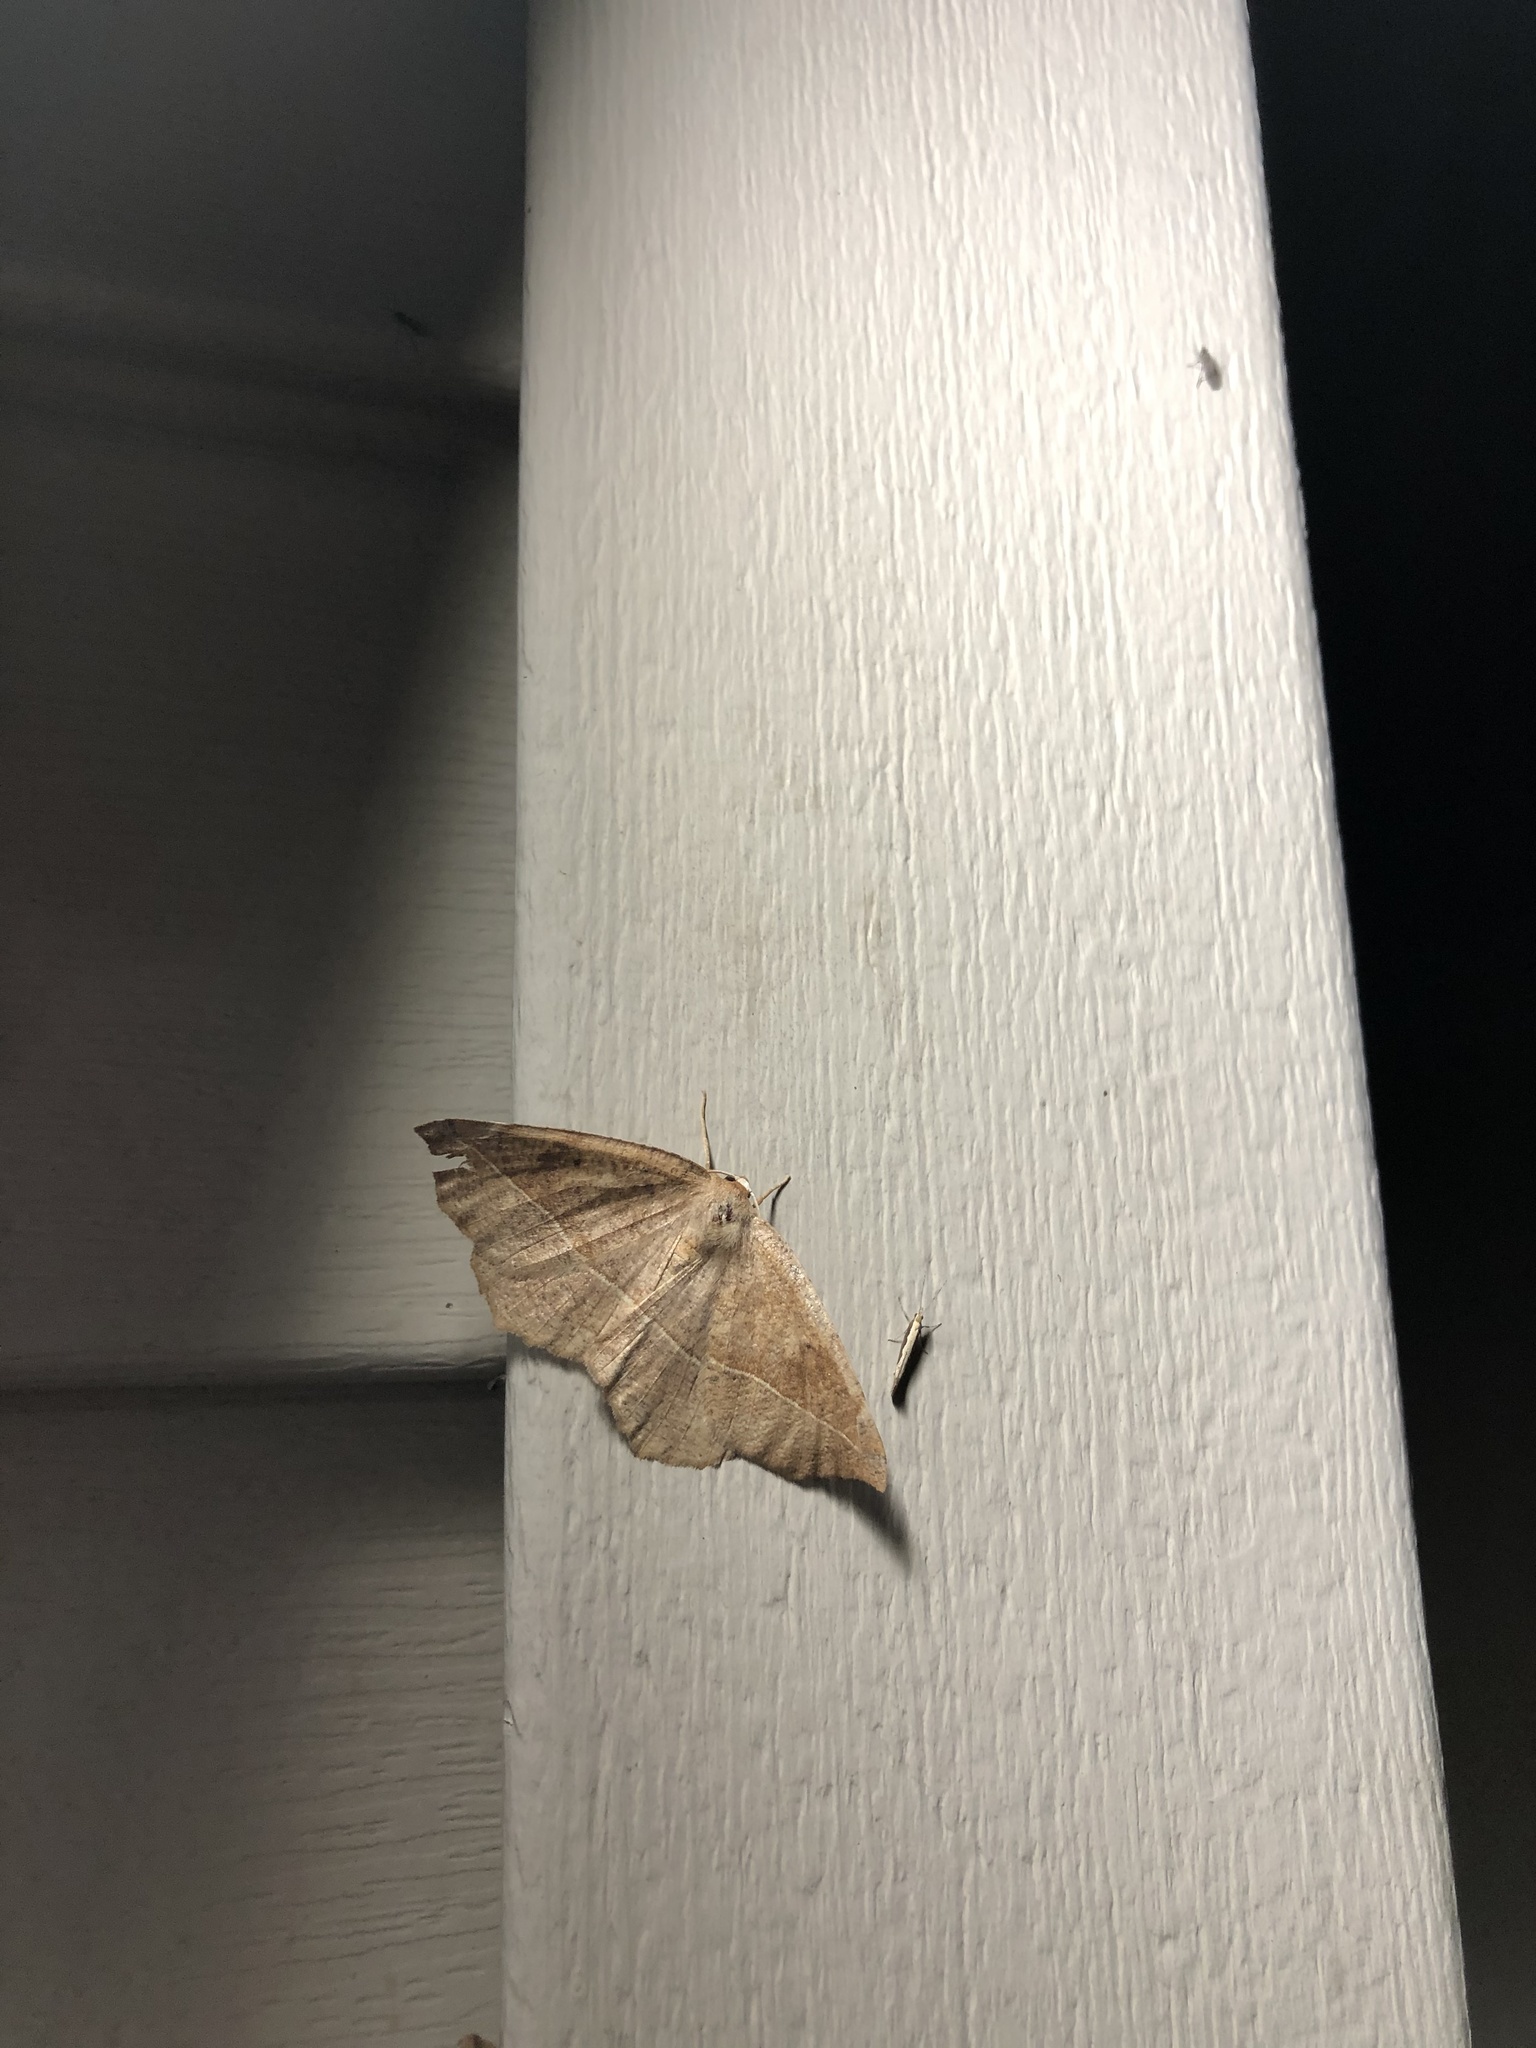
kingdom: Animalia
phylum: Arthropoda
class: Insecta
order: Lepidoptera
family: Geometridae
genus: Eutrapela
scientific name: Eutrapela clemataria
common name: Curved-toothed geometer
